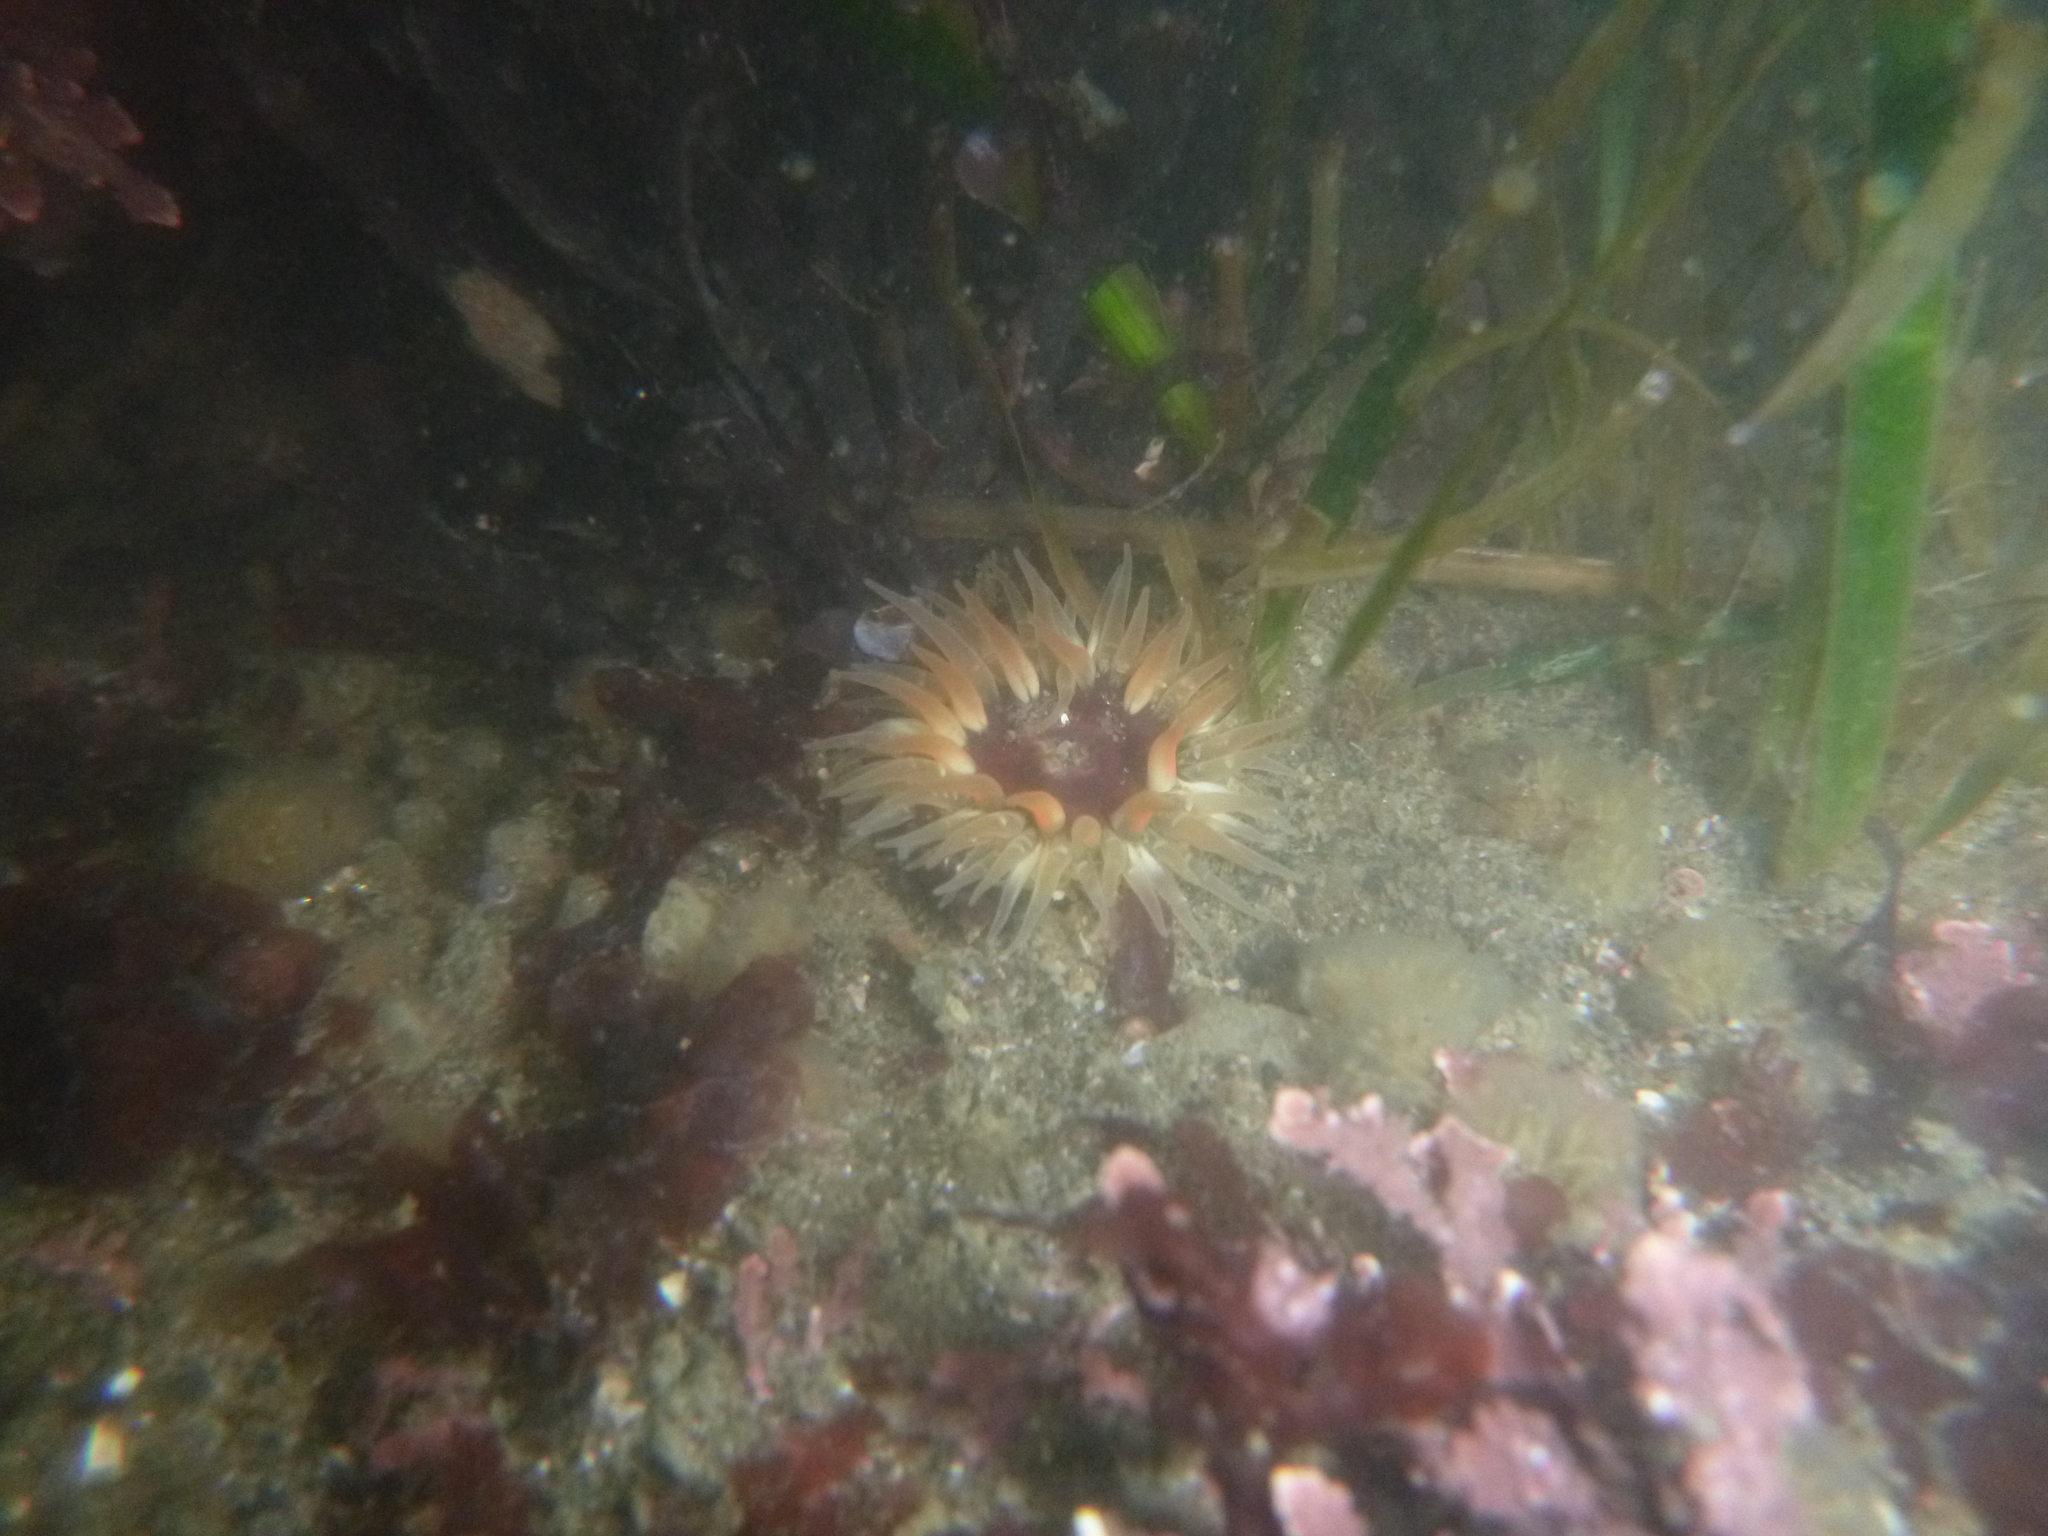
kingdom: Animalia
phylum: Cnidaria
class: Anthozoa
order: Actiniaria
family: Actiniidae
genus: Anthopleura
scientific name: Anthopleura artemisia
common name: Buried sea anemone
